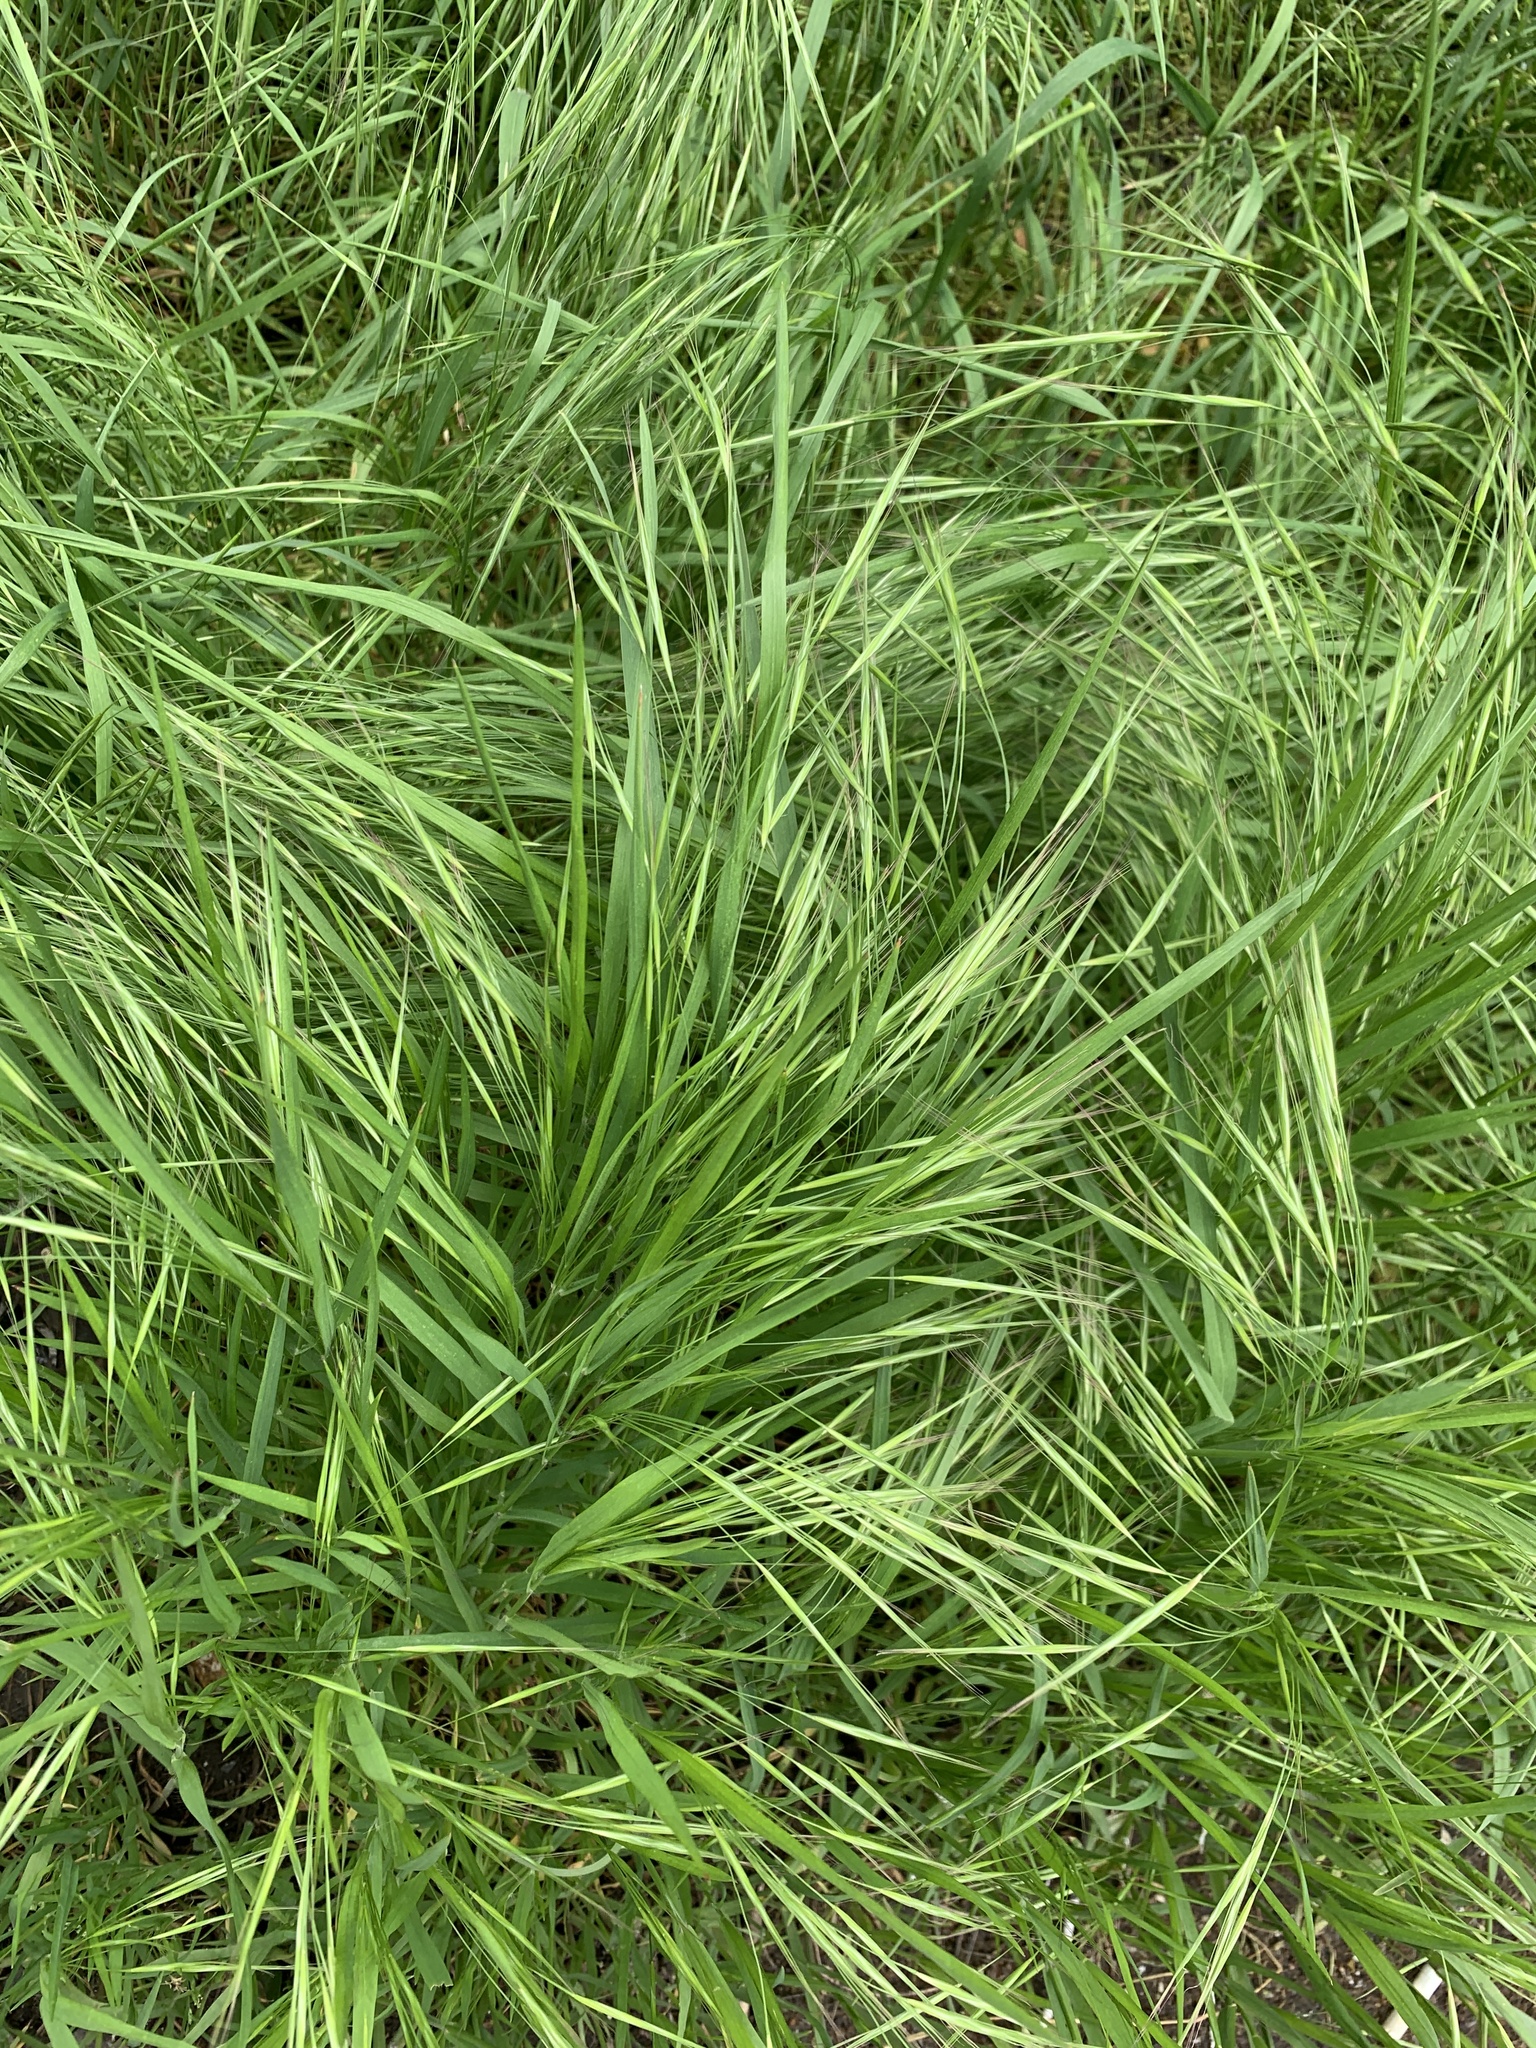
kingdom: Plantae
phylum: Tracheophyta
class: Liliopsida
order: Poales
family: Poaceae
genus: Bromus
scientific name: Bromus sterilis
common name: Poverty brome
